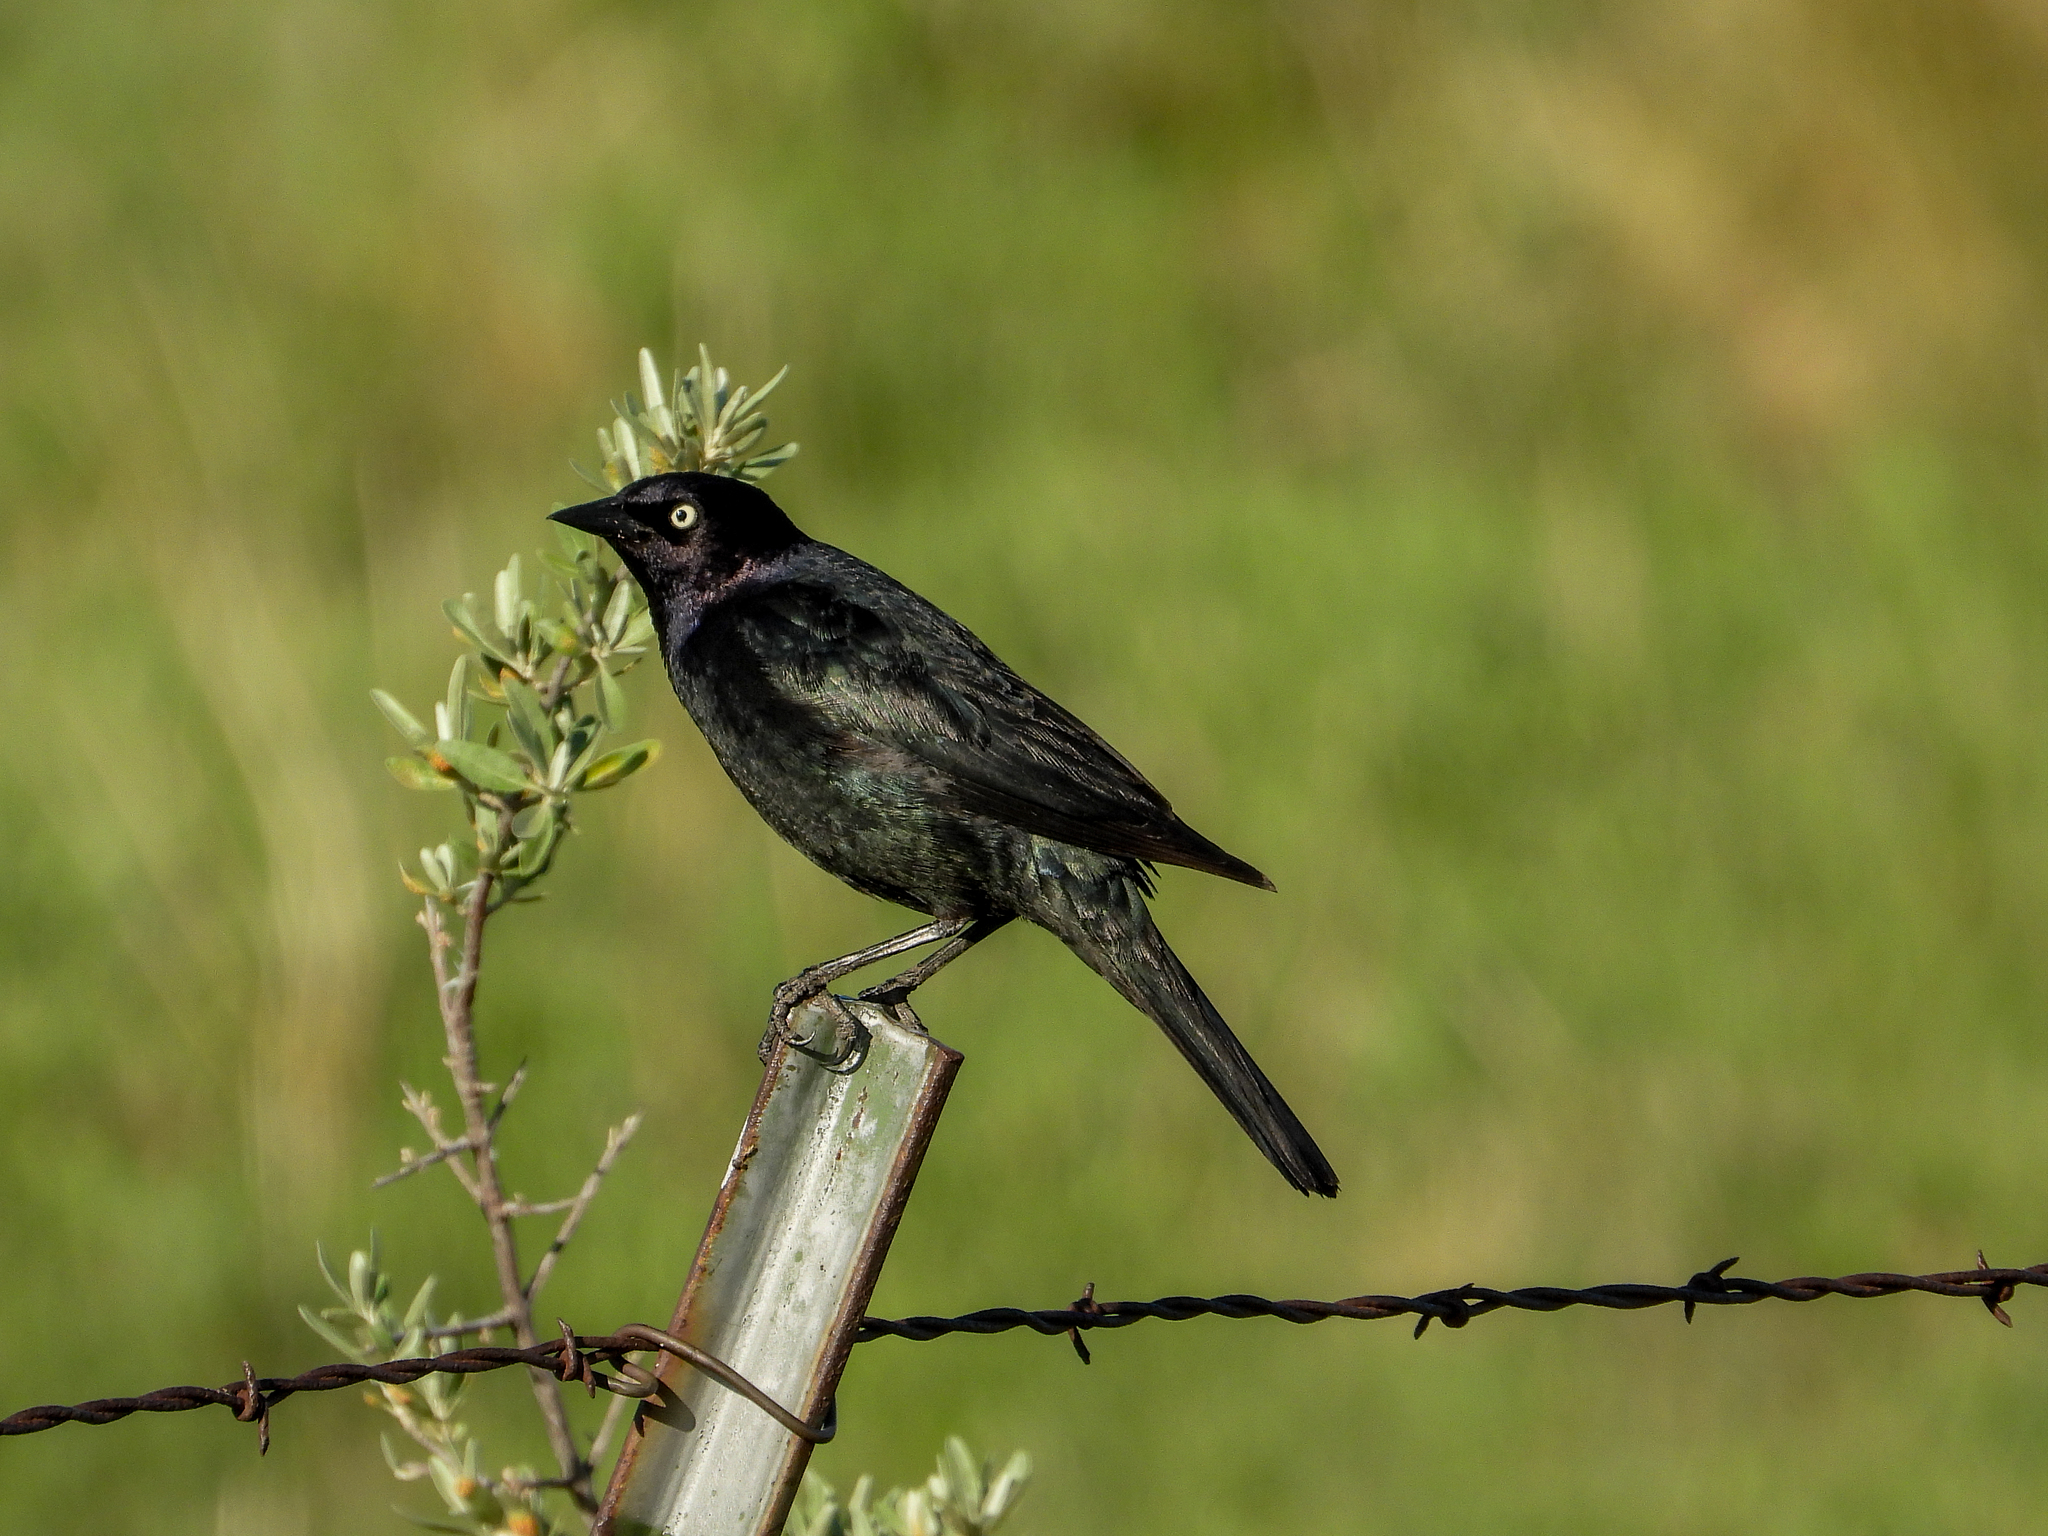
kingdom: Animalia
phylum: Chordata
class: Aves
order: Passeriformes
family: Icteridae
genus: Euphagus
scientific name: Euphagus cyanocephalus
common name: Brewer's blackbird
